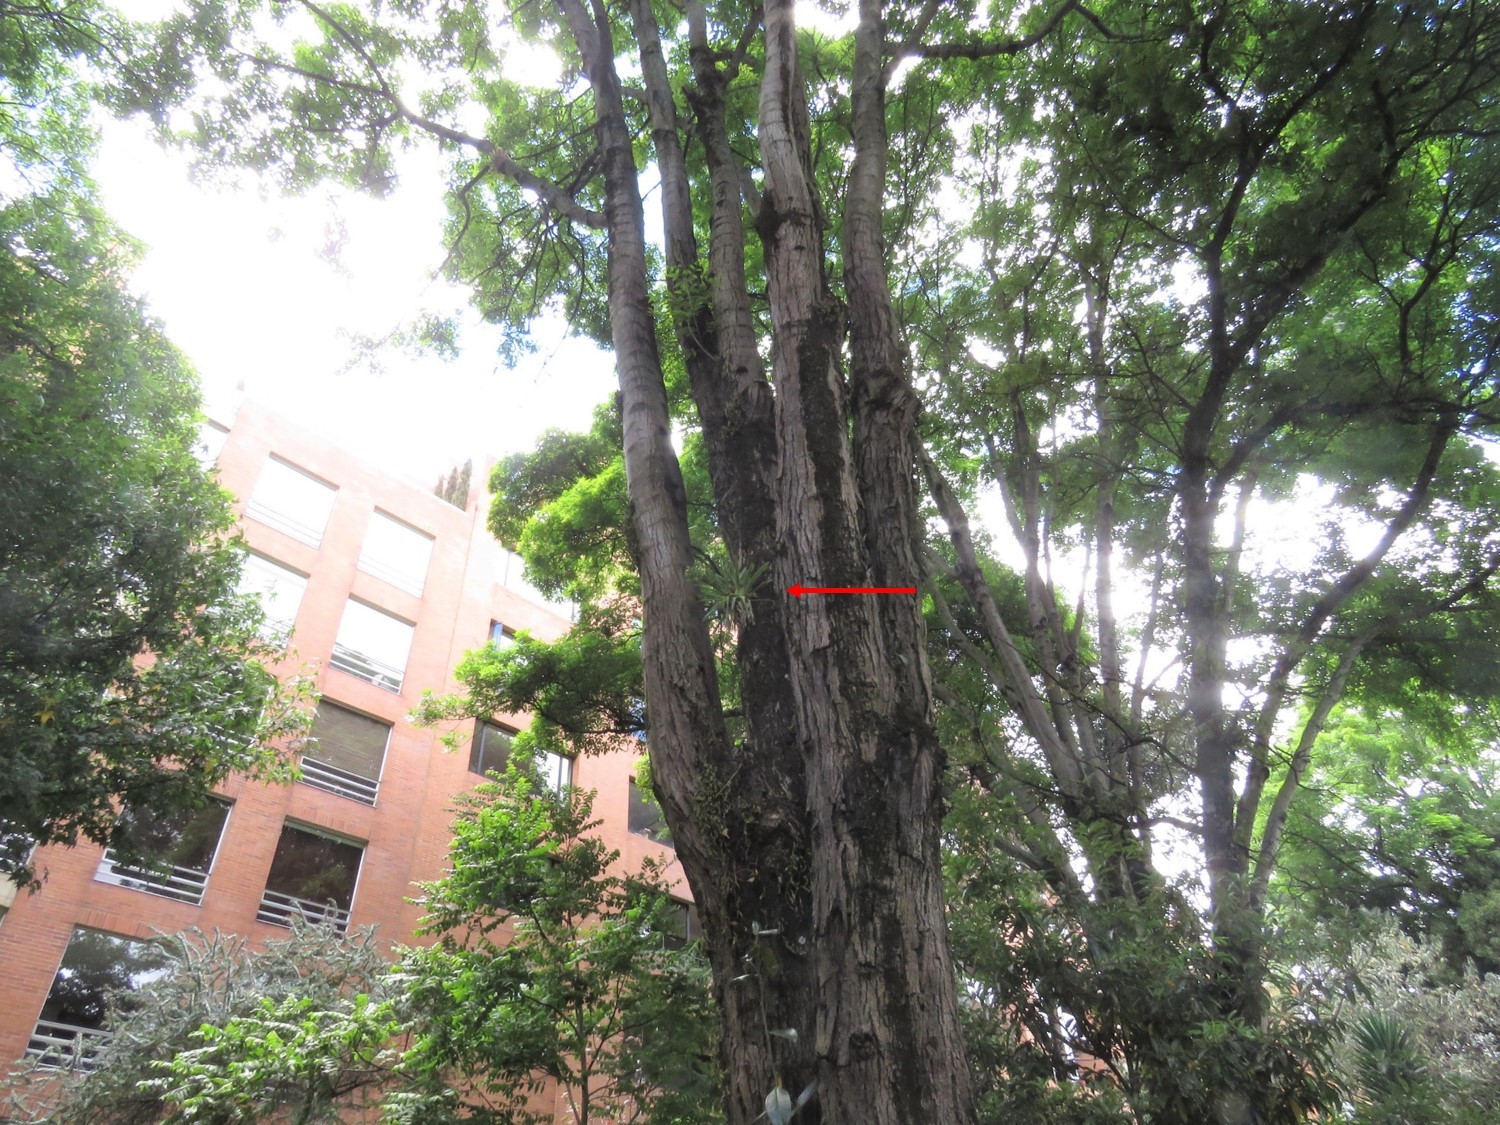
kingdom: Plantae
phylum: Tracheophyta
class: Liliopsida
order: Poales
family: Bromeliaceae
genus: Tillandsia
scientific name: Tillandsia biflora
